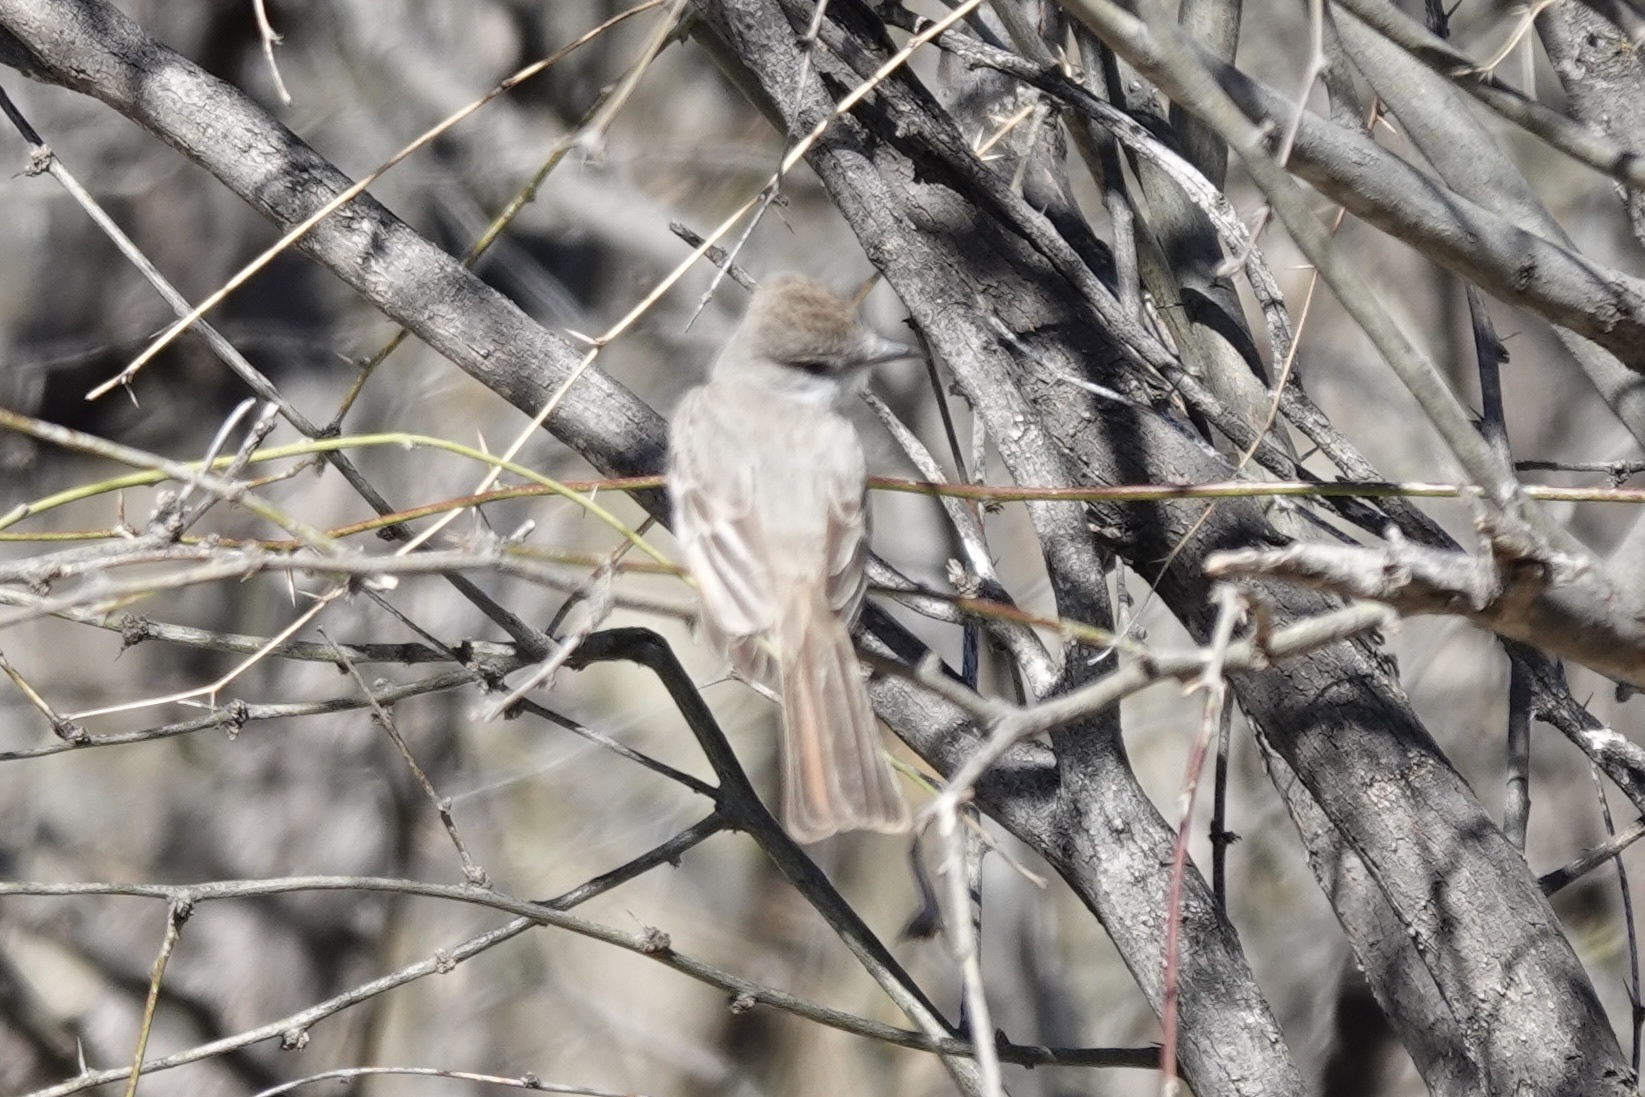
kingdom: Animalia
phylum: Chordata
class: Aves
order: Passeriformes
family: Tyrannidae
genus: Myiarchus
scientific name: Myiarchus cinerascens
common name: Ash-throated flycatcher
